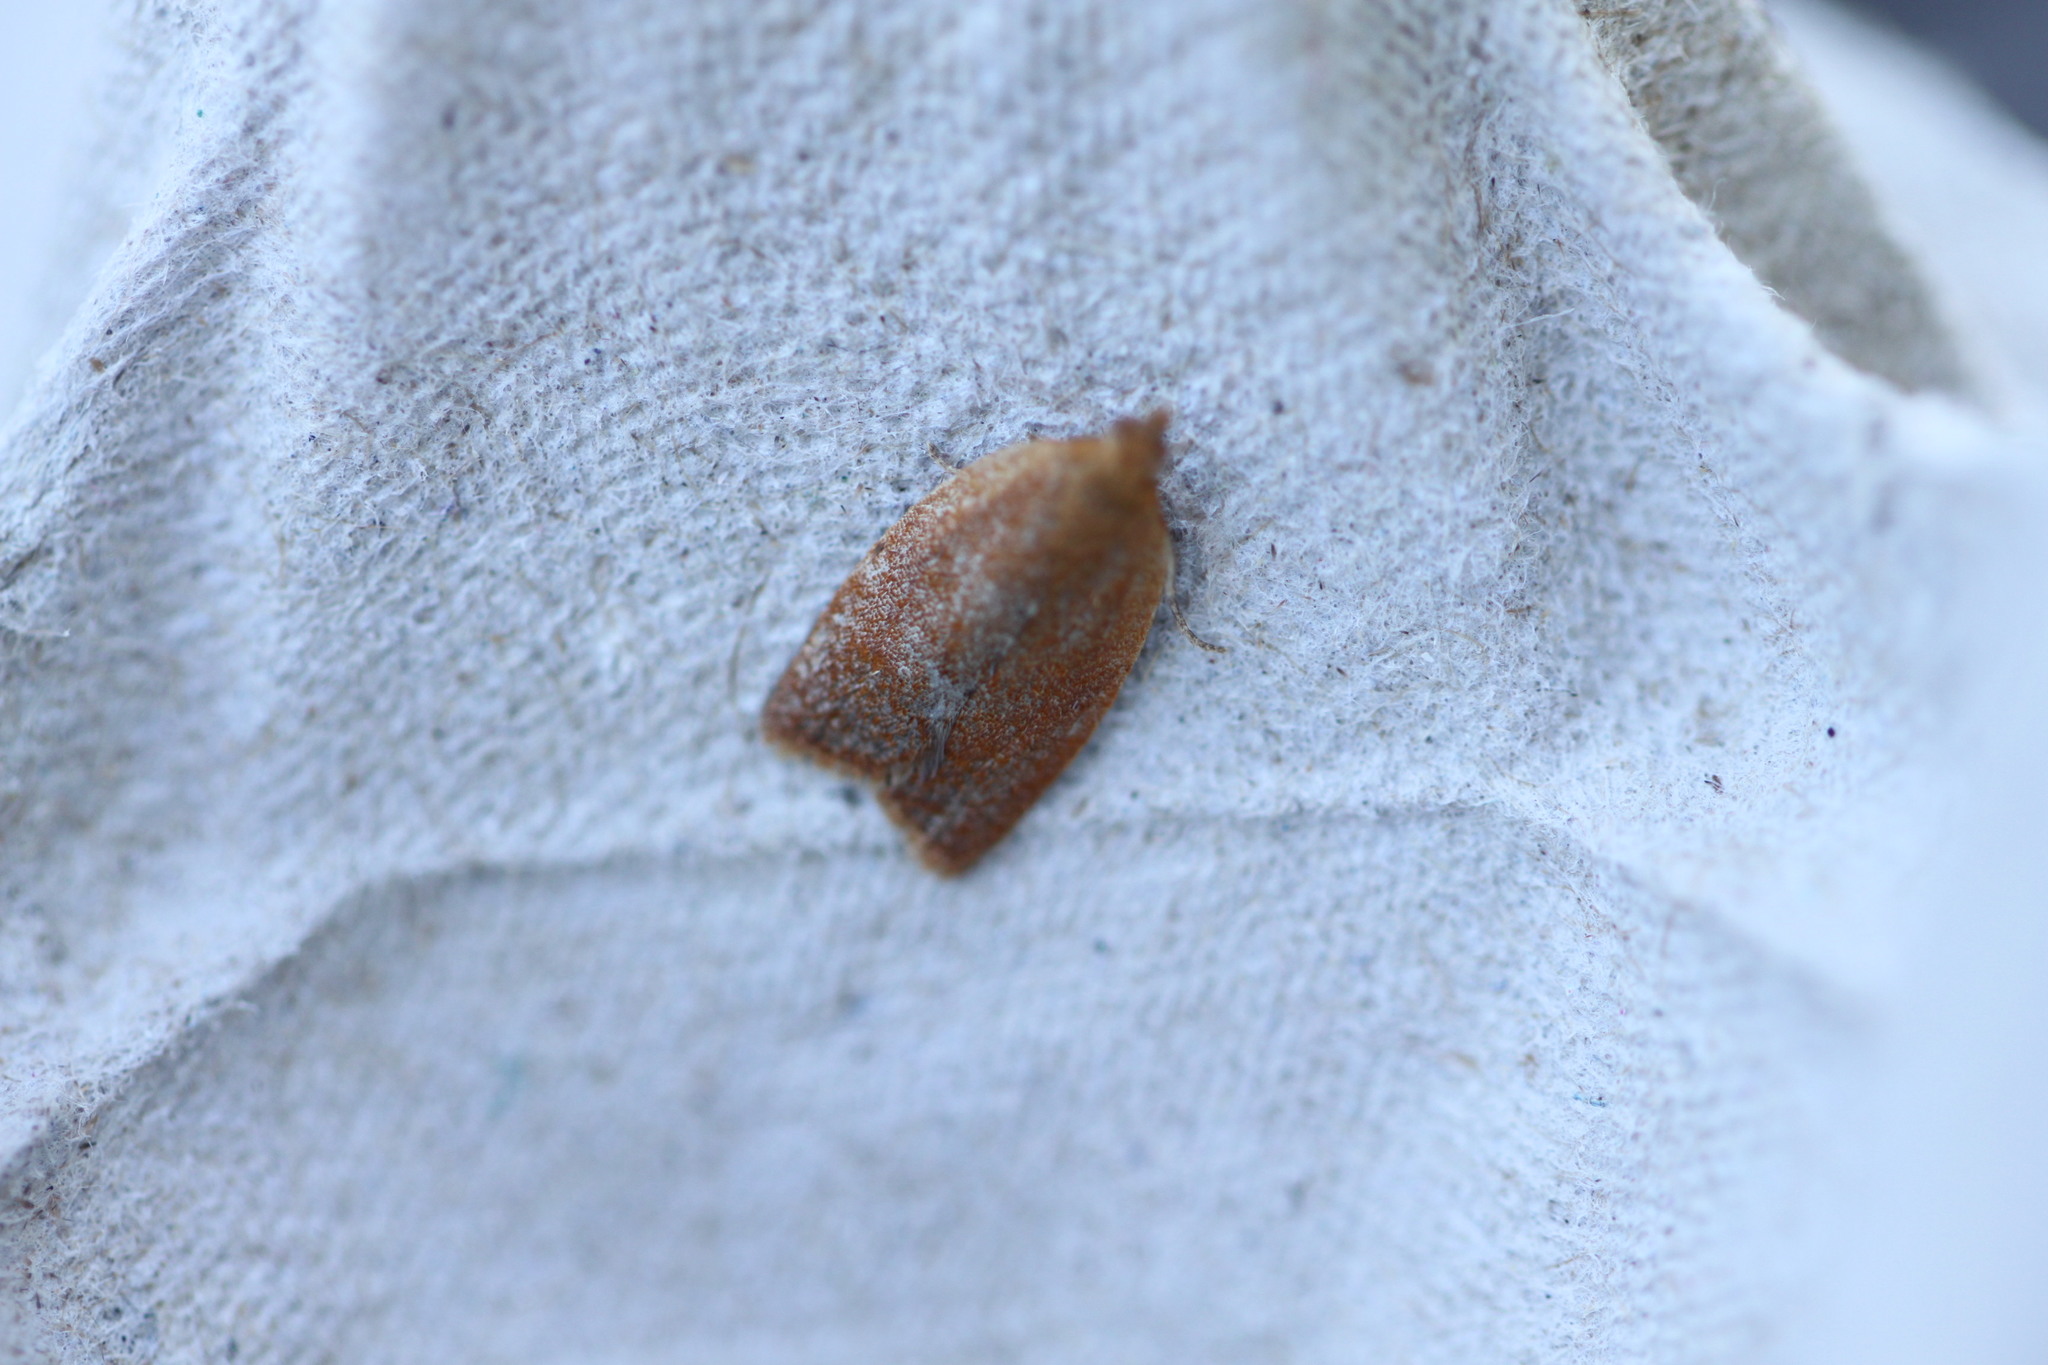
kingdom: Animalia
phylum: Arthropoda
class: Insecta
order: Lepidoptera
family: Tortricidae
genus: Clepsis
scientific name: Clepsis consimilana
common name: Privet tortrix
